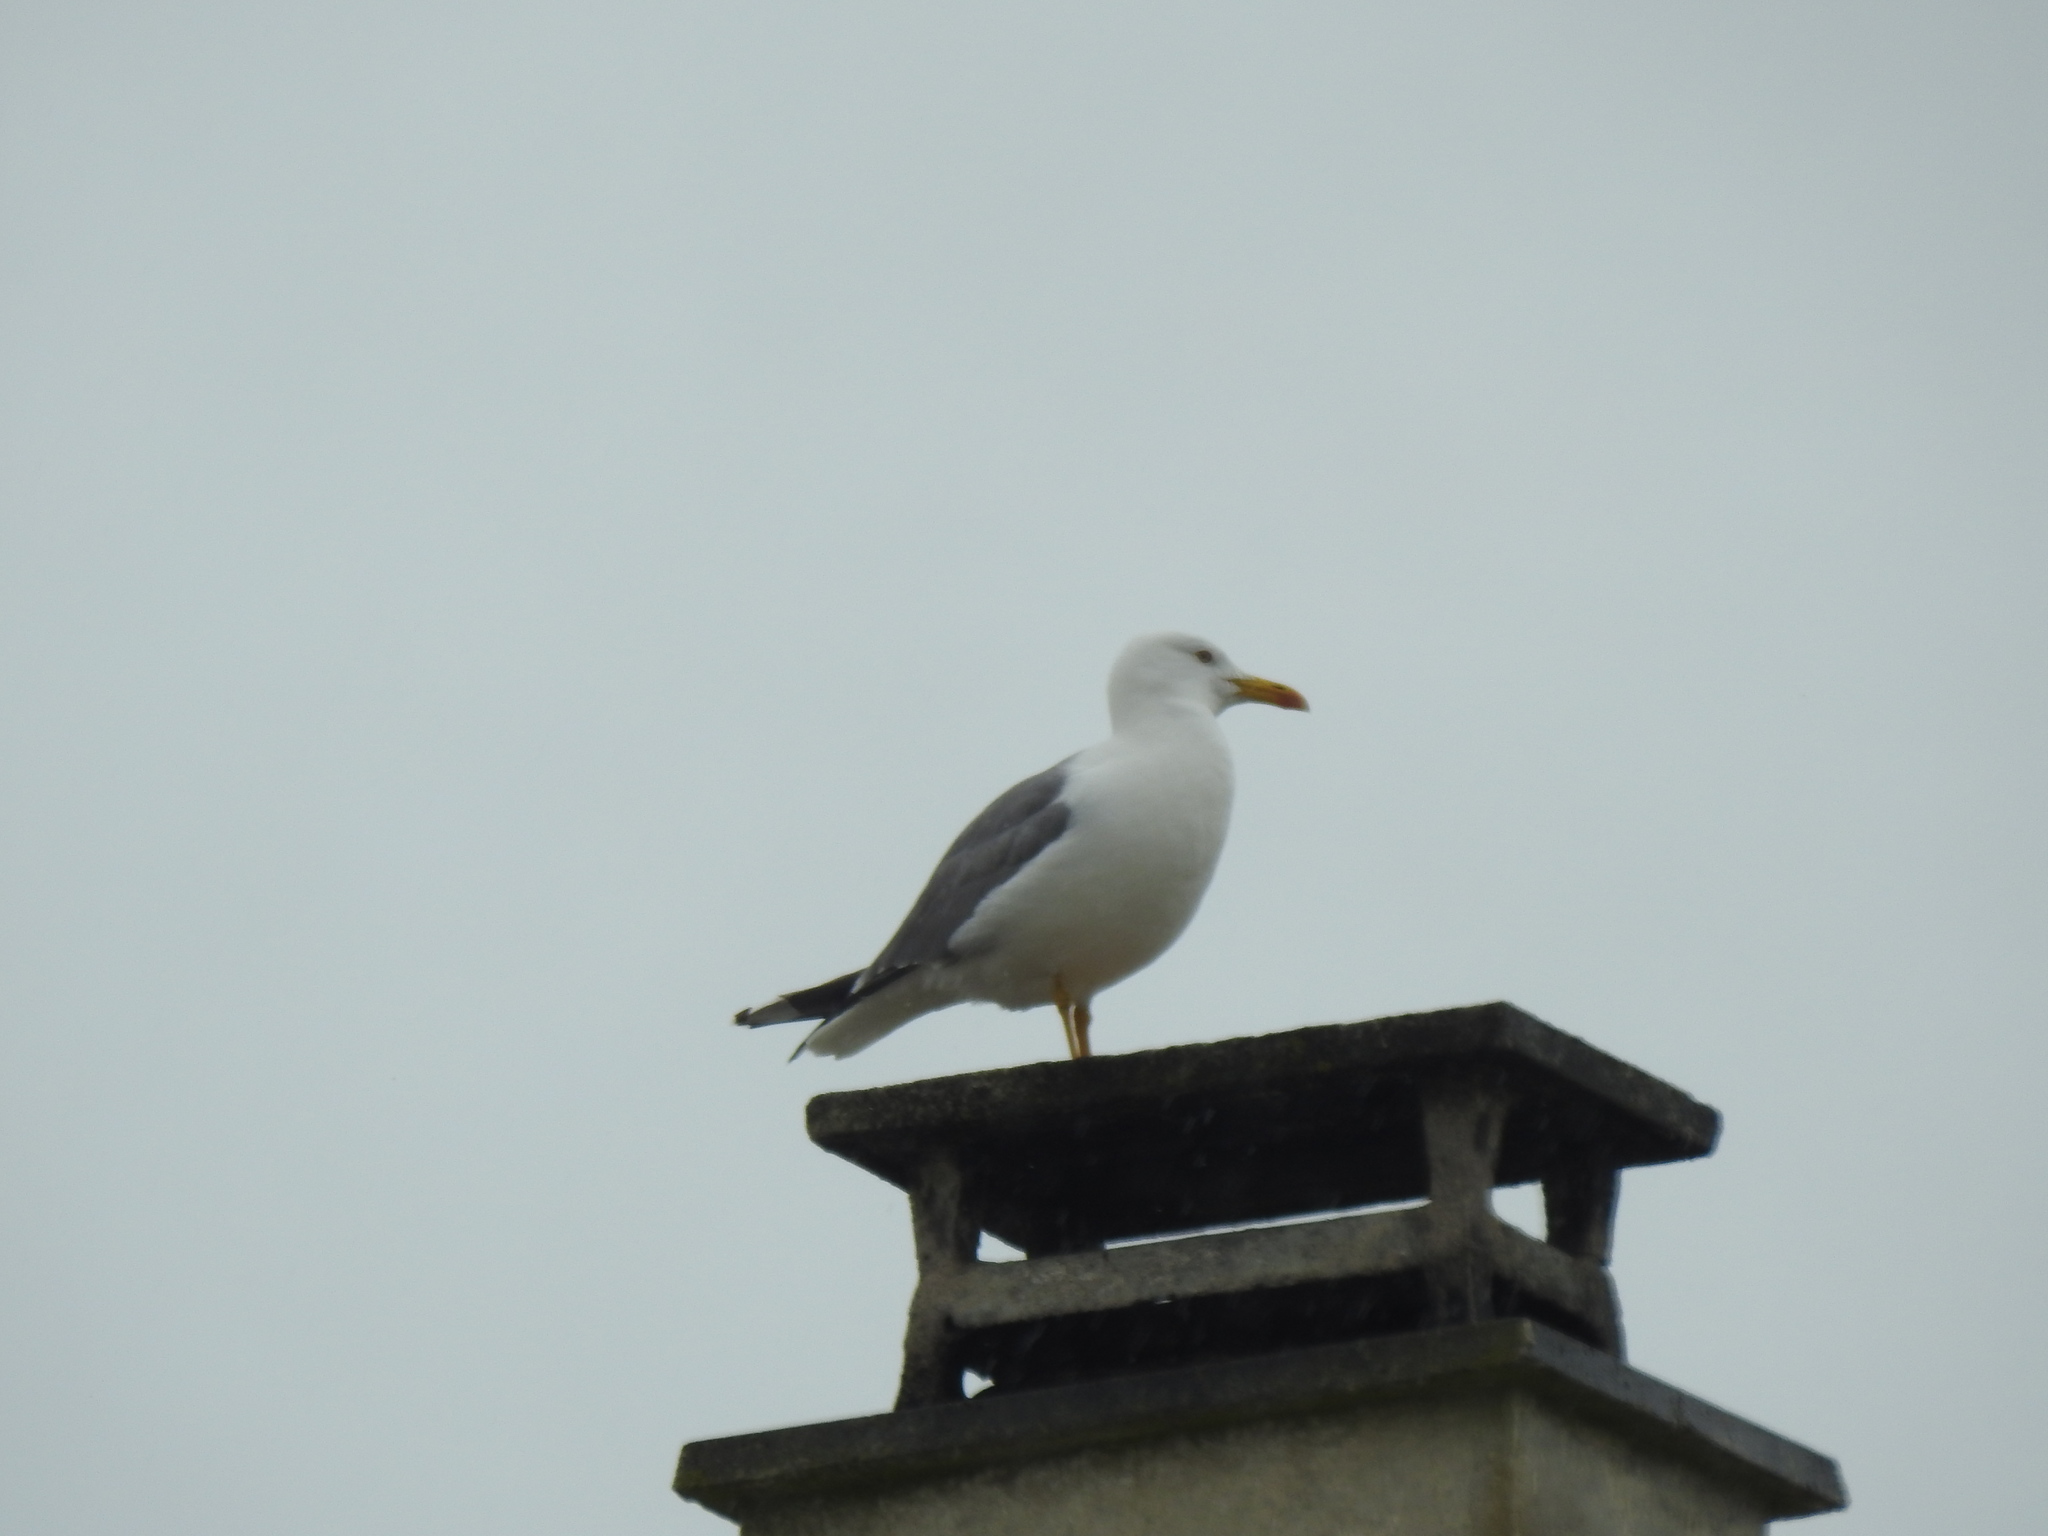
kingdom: Animalia
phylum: Chordata
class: Aves
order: Charadriiformes
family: Laridae
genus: Larus
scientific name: Larus michahellis
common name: Yellow-legged gull
